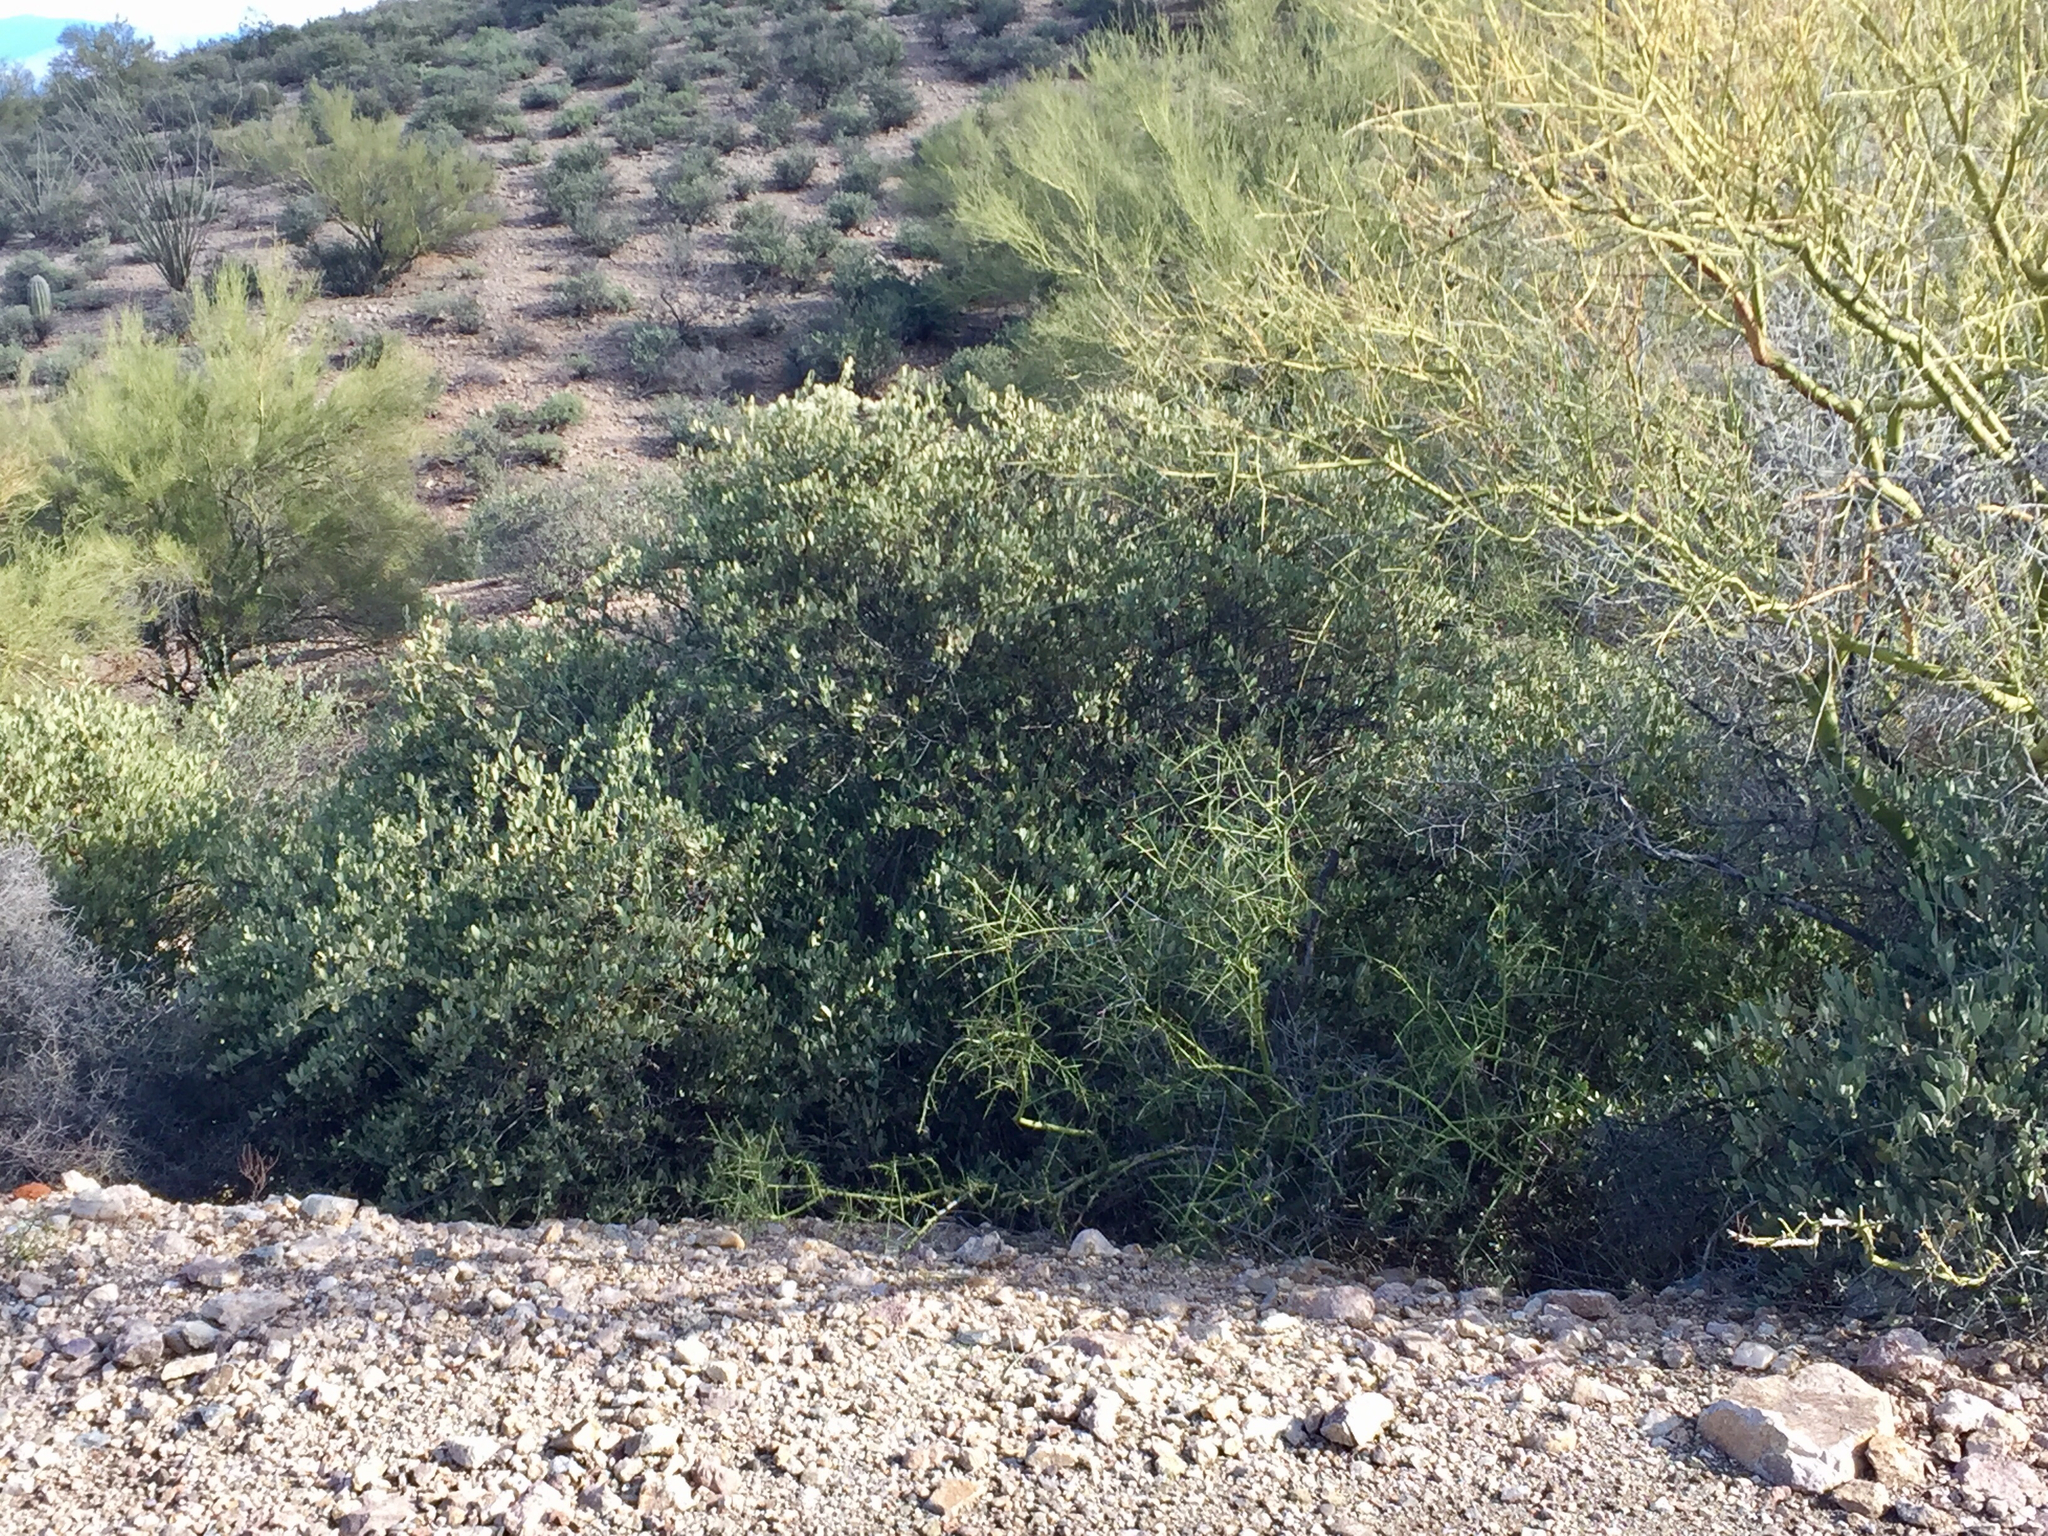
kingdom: Plantae
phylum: Tracheophyta
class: Magnoliopsida
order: Caryophyllales
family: Simmondsiaceae
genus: Simmondsia
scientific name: Simmondsia chinensis
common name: Jojoba
